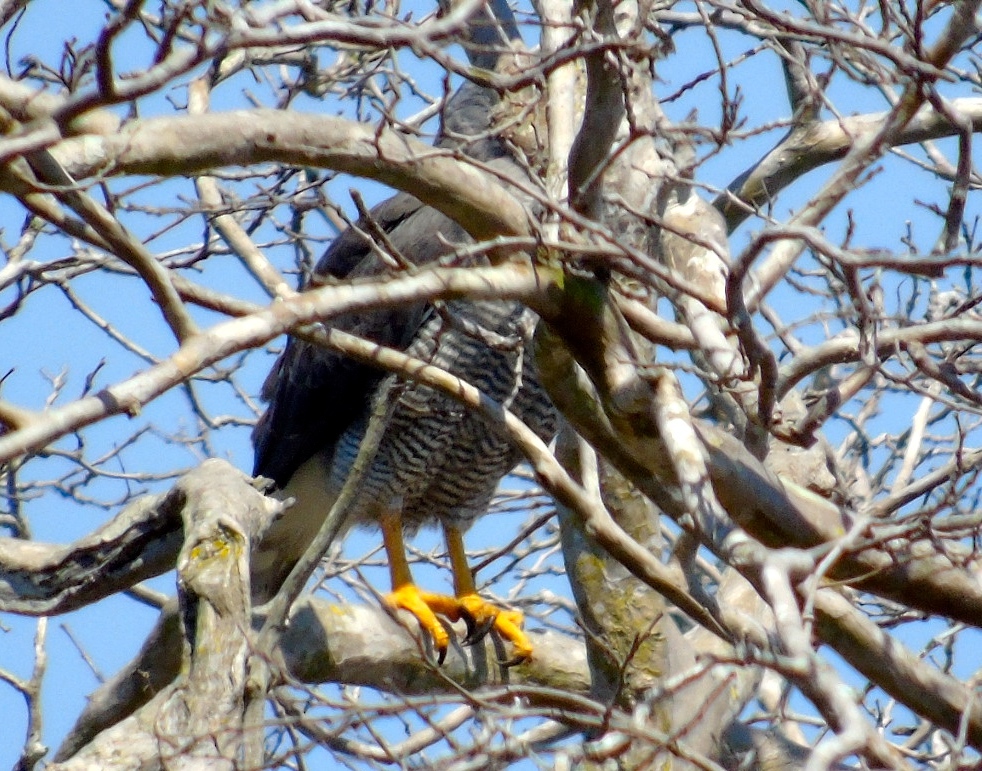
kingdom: Animalia
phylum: Chordata
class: Aves
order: Accipitriformes
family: Accipitridae
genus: Buteo
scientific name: Buteo nitidus
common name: Grey-lined hawk
